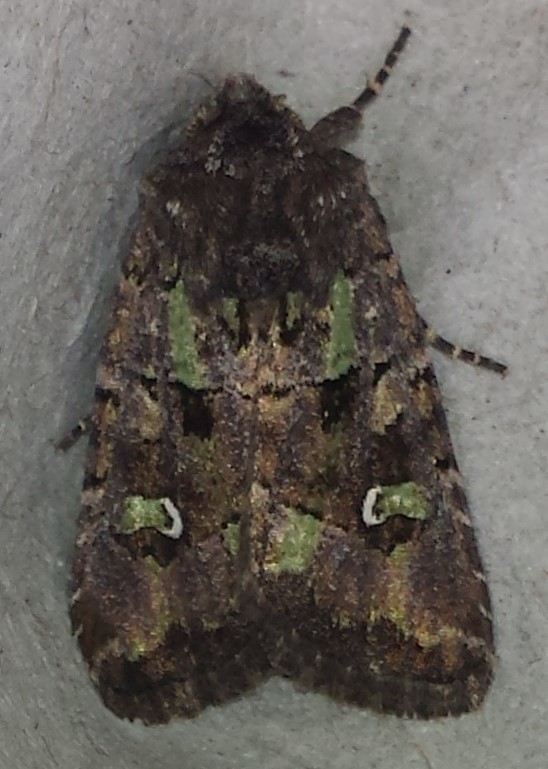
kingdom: Animalia
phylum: Arthropoda
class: Insecta
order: Lepidoptera
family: Noctuidae
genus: Lacinipolia
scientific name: Lacinipolia renigera
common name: Kidney-spotted minor
